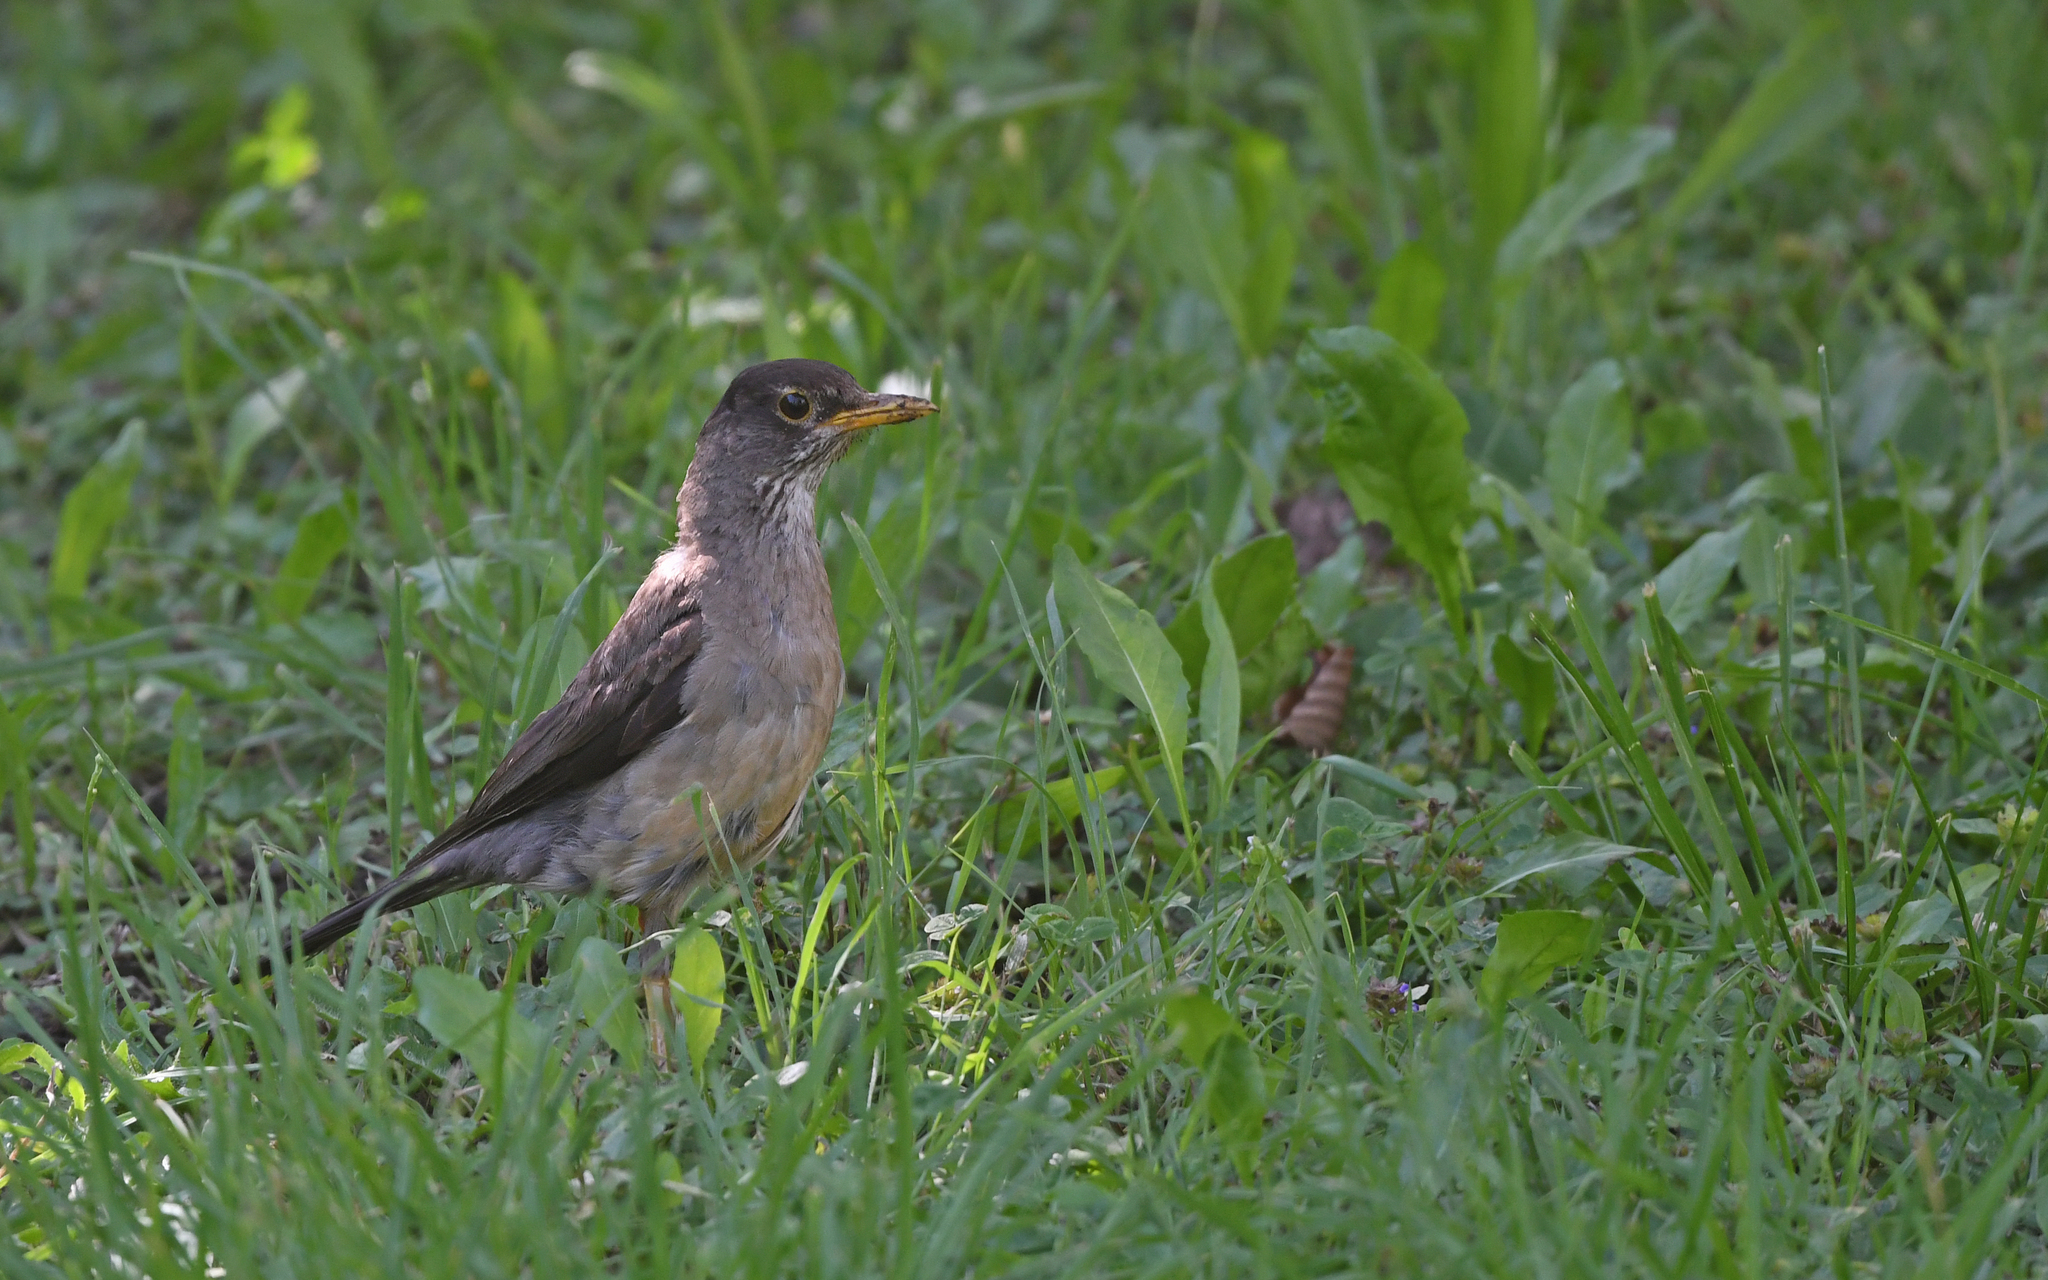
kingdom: Animalia
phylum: Chordata
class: Aves
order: Passeriformes
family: Turdidae
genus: Turdus
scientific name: Turdus falcklandii
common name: Austral thrush
